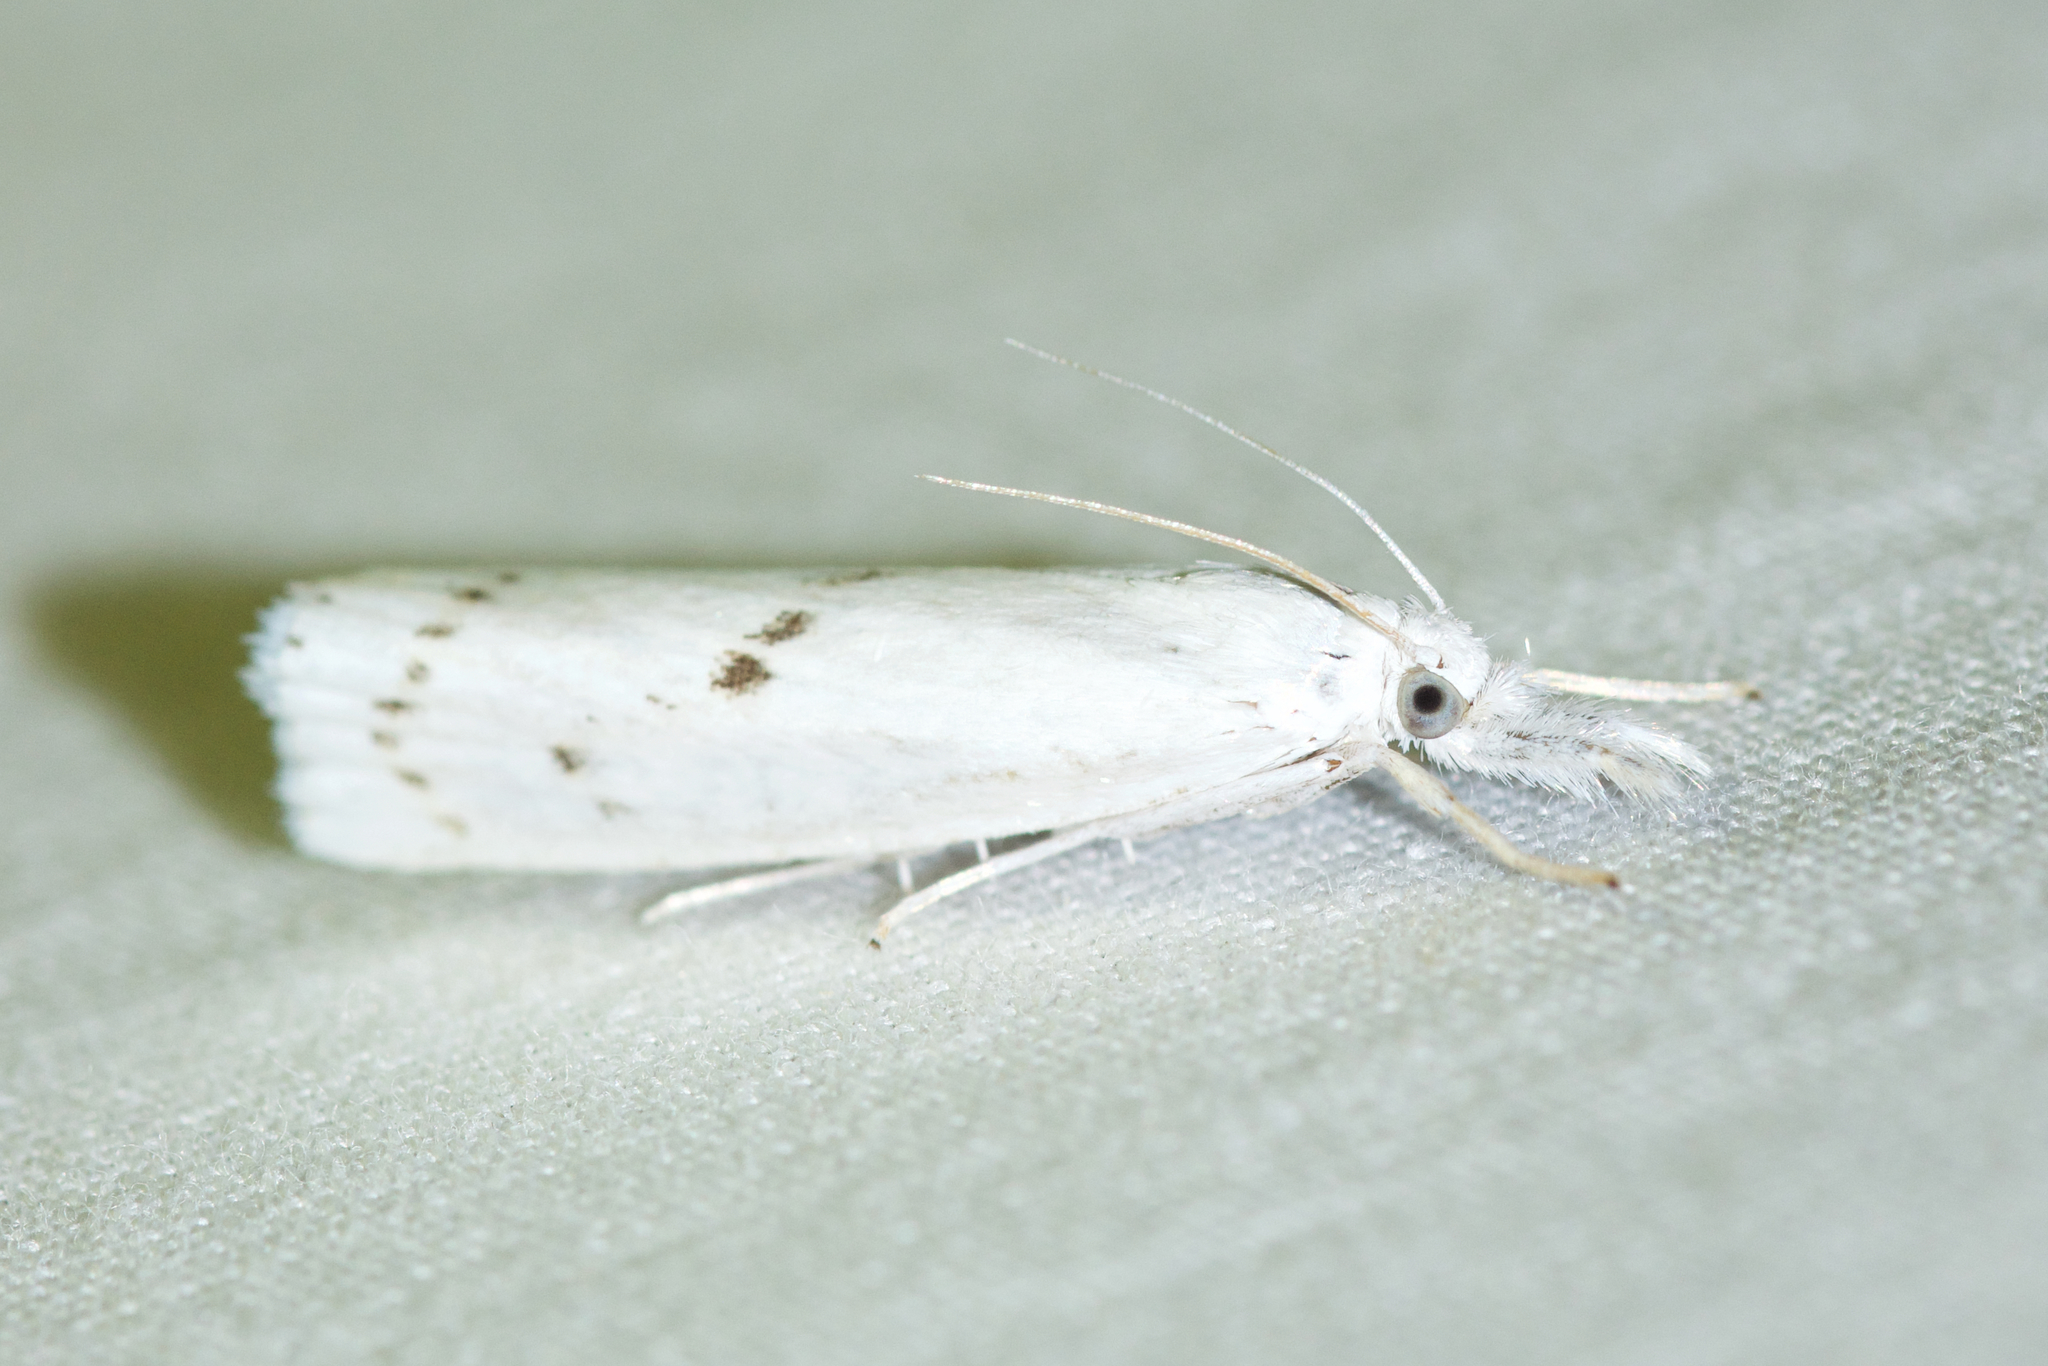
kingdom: Animalia
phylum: Arthropoda
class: Insecta
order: Lepidoptera
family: Crambidae
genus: Crambus
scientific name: Crambus Arequipa turbatella
